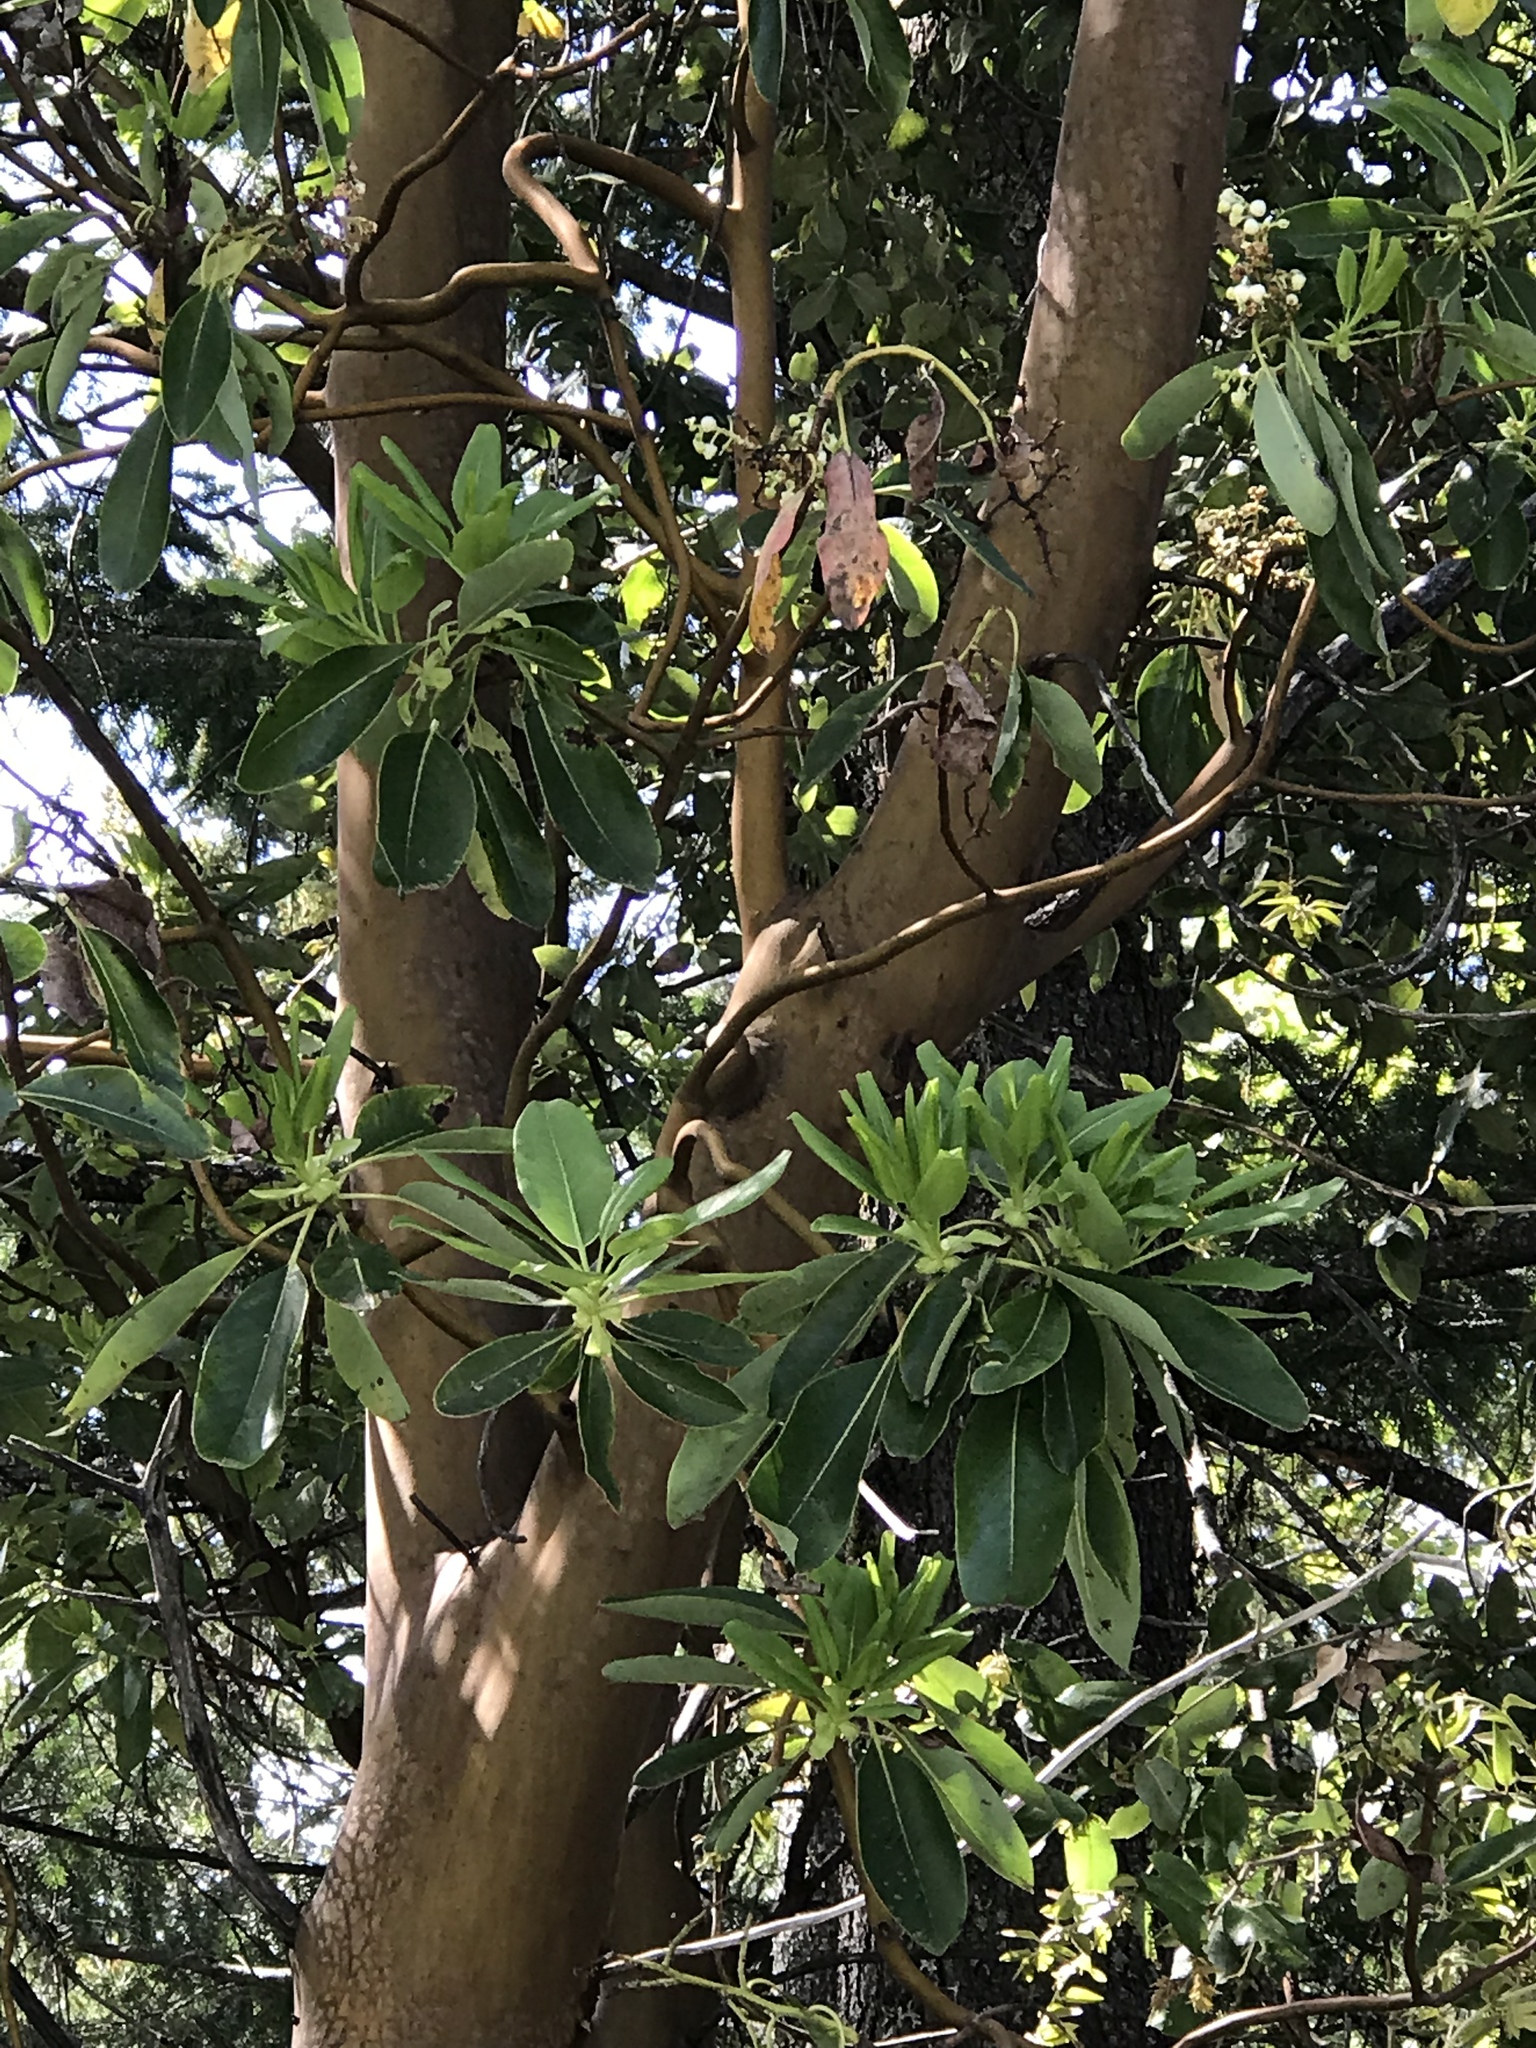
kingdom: Plantae
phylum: Tracheophyta
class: Magnoliopsida
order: Ericales
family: Ericaceae
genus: Arbutus
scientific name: Arbutus menziesii
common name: Pacific madrone
